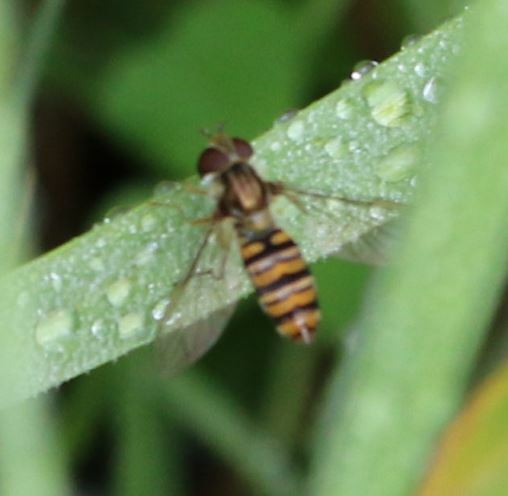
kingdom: Animalia
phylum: Arthropoda
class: Insecta
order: Diptera
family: Syrphidae
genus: Episyrphus
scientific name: Episyrphus balteatus
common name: Marmalade hoverfly
